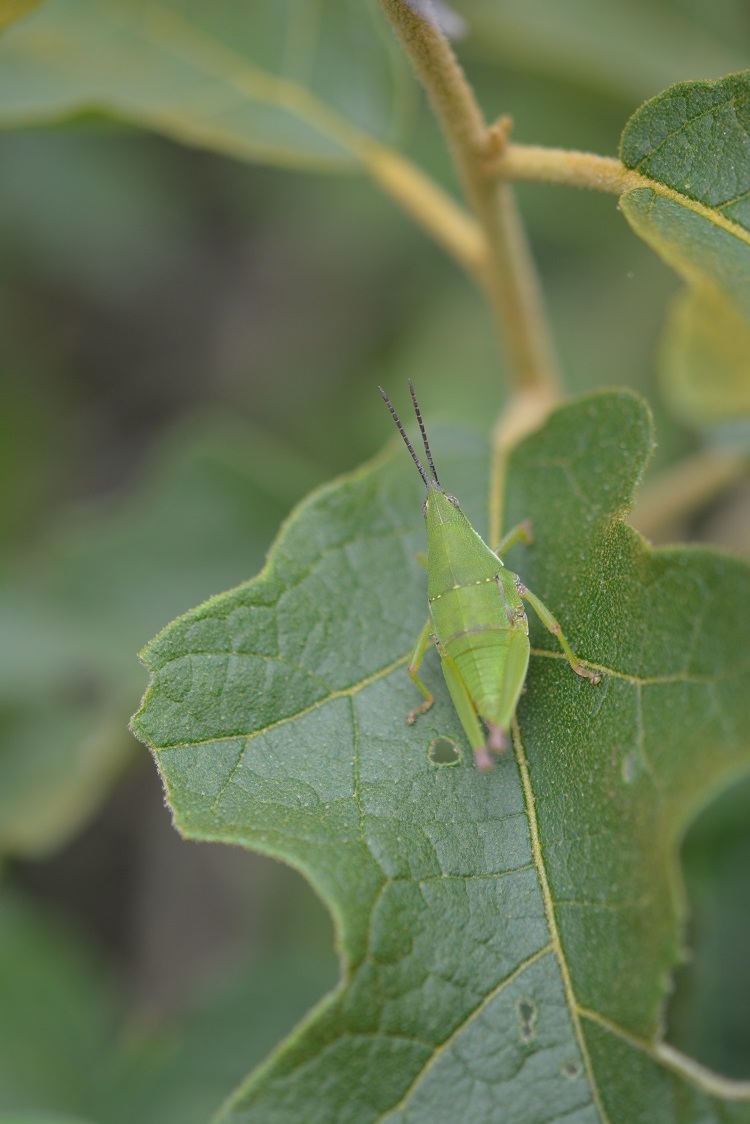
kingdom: Animalia
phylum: Arthropoda
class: Insecta
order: Orthoptera
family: Pyrgomorphidae
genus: Sphenarium
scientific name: Sphenarium histrio
